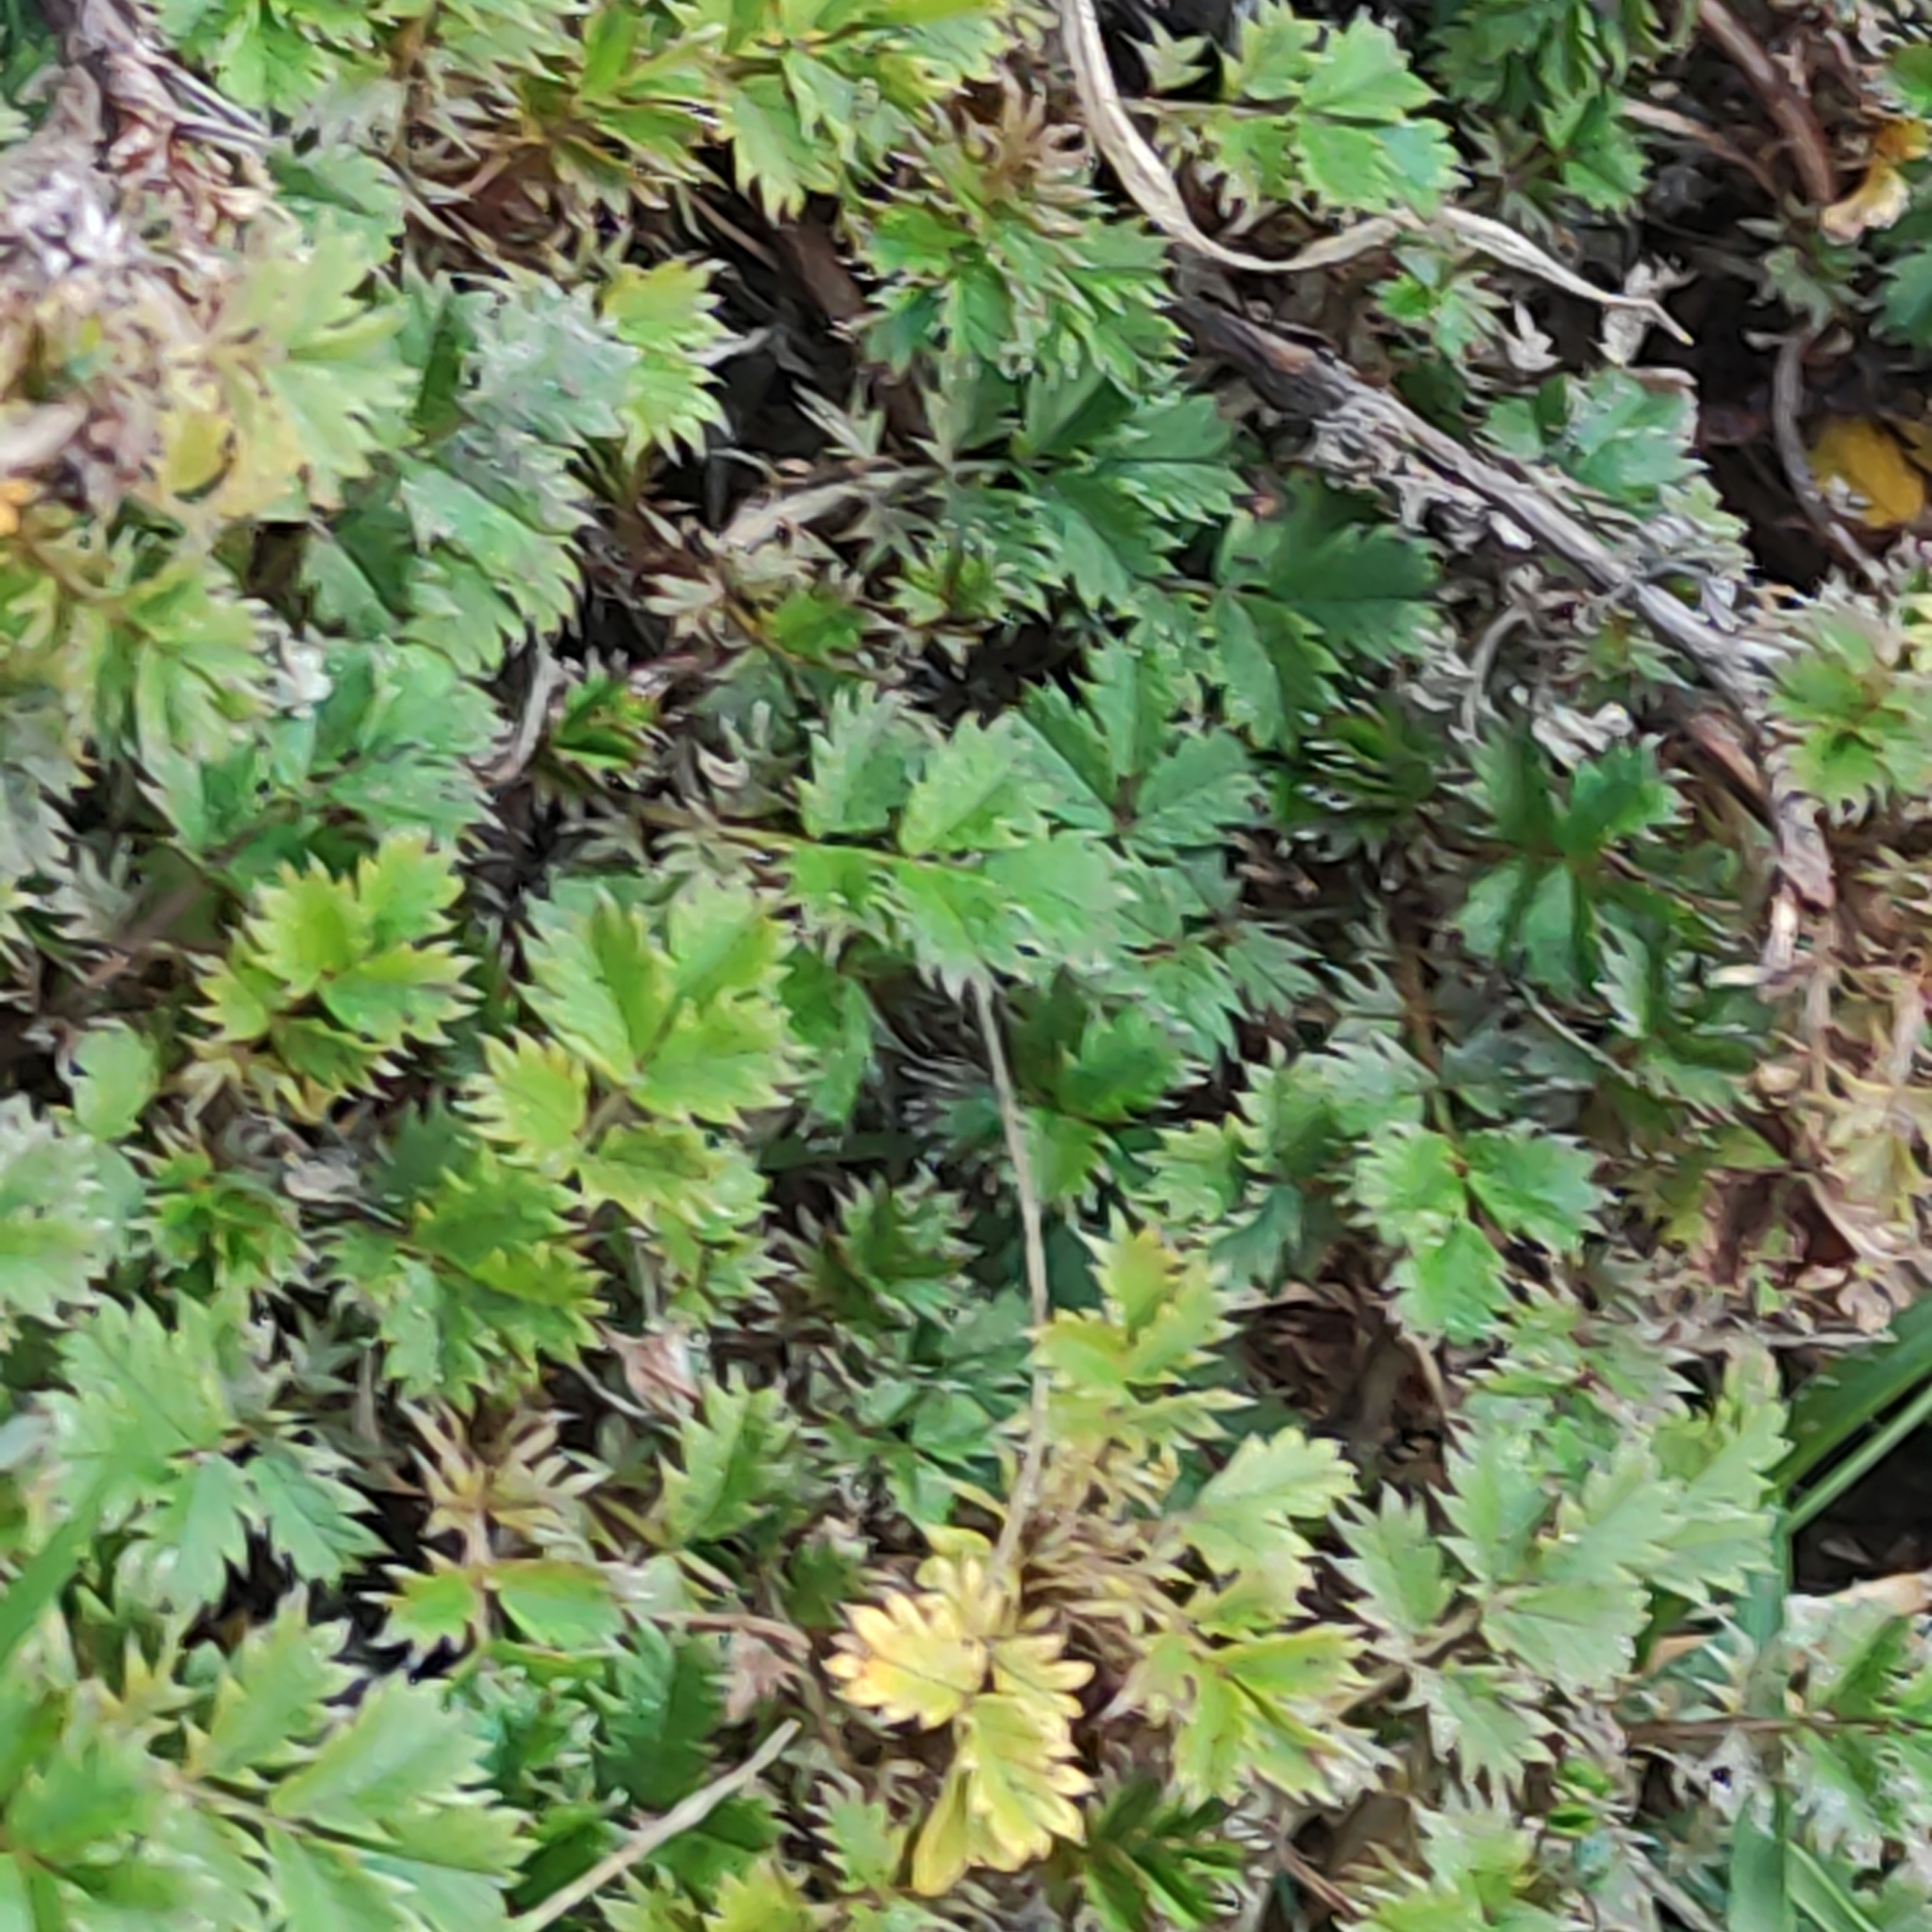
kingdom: Plantae
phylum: Tracheophyta
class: Magnoliopsida
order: Rosales
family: Rosaceae
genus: Acaena
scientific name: Acaena anserinifolia
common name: Bronze pirri-pirri-bur
